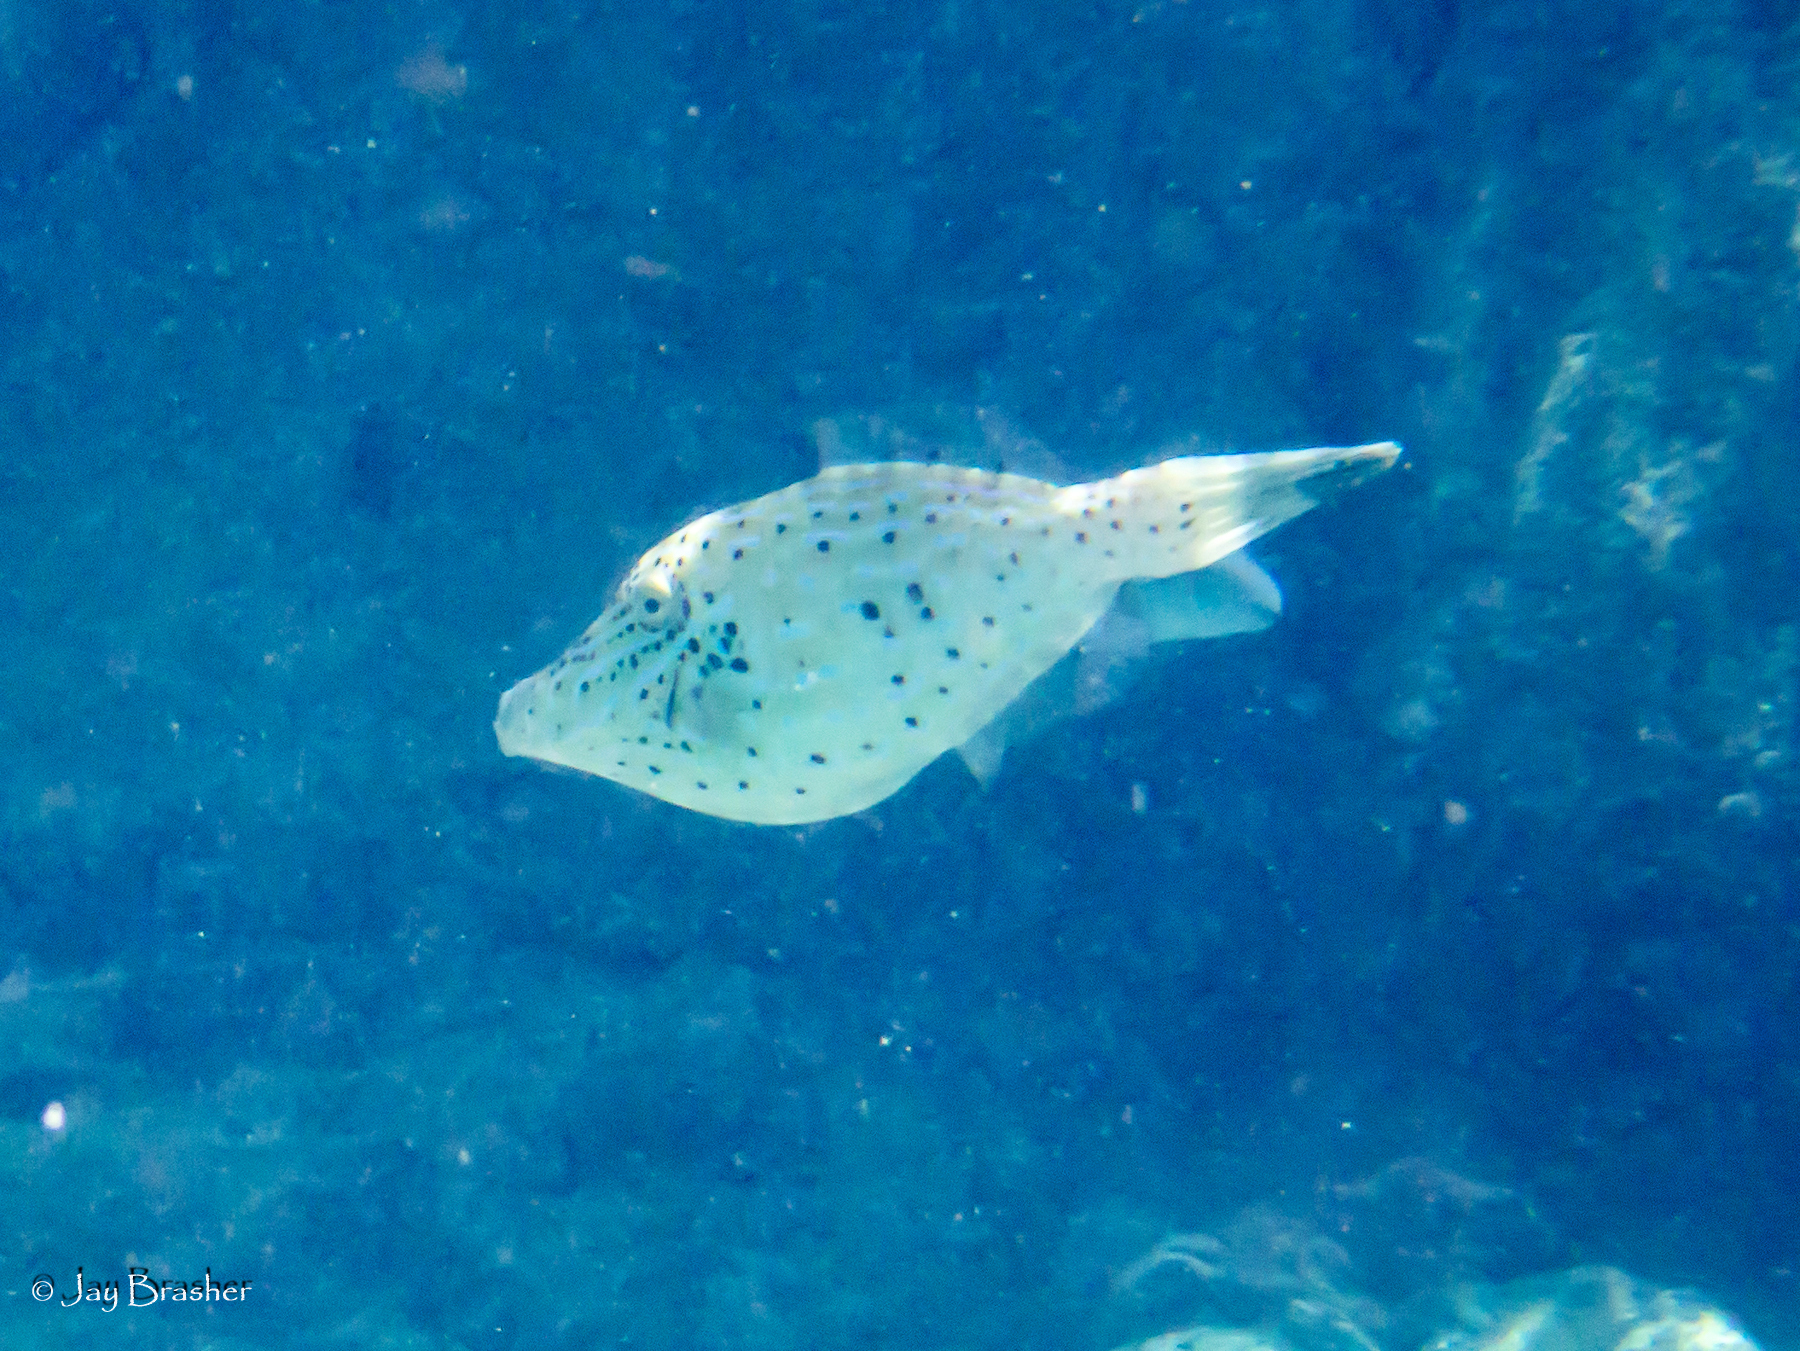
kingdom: Animalia
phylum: Chordata
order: Tetraodontiformes
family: Monacanthidae
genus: Aluterus
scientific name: Aluterus scriptus
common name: Scribbled leatherjacket filefish
